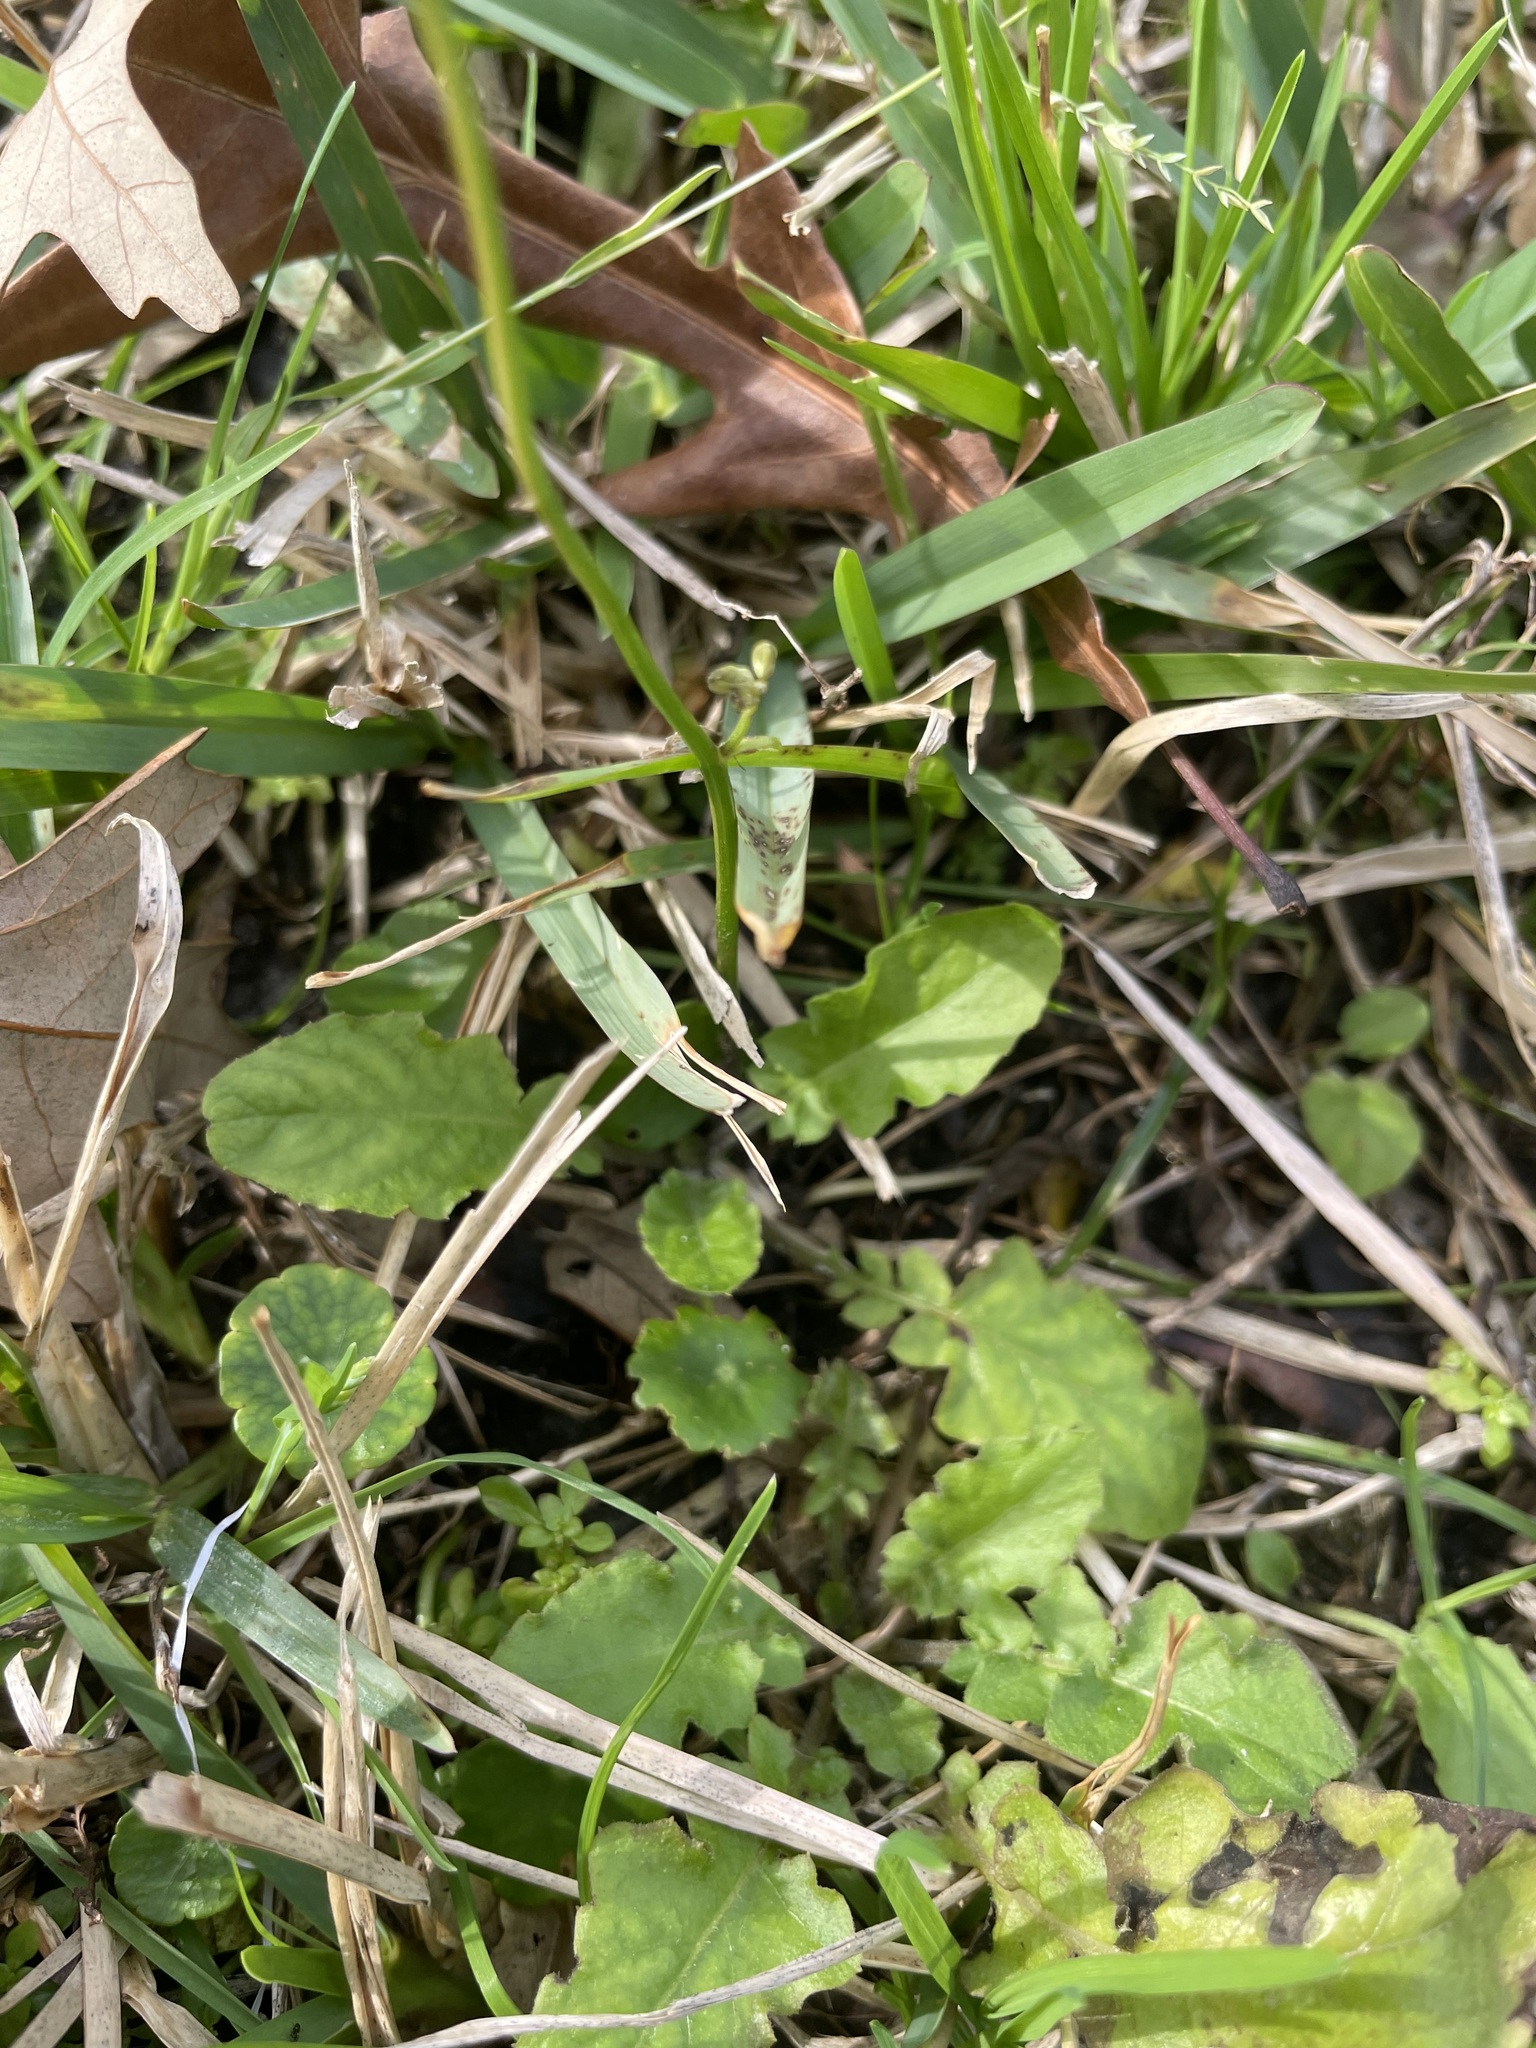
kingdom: Plantae
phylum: Tracheophyta
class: Magnoliopsida
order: Asterales
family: Asteraceae
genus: Youngia
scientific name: Youngia japonica
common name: Oriental false hawksbeard
